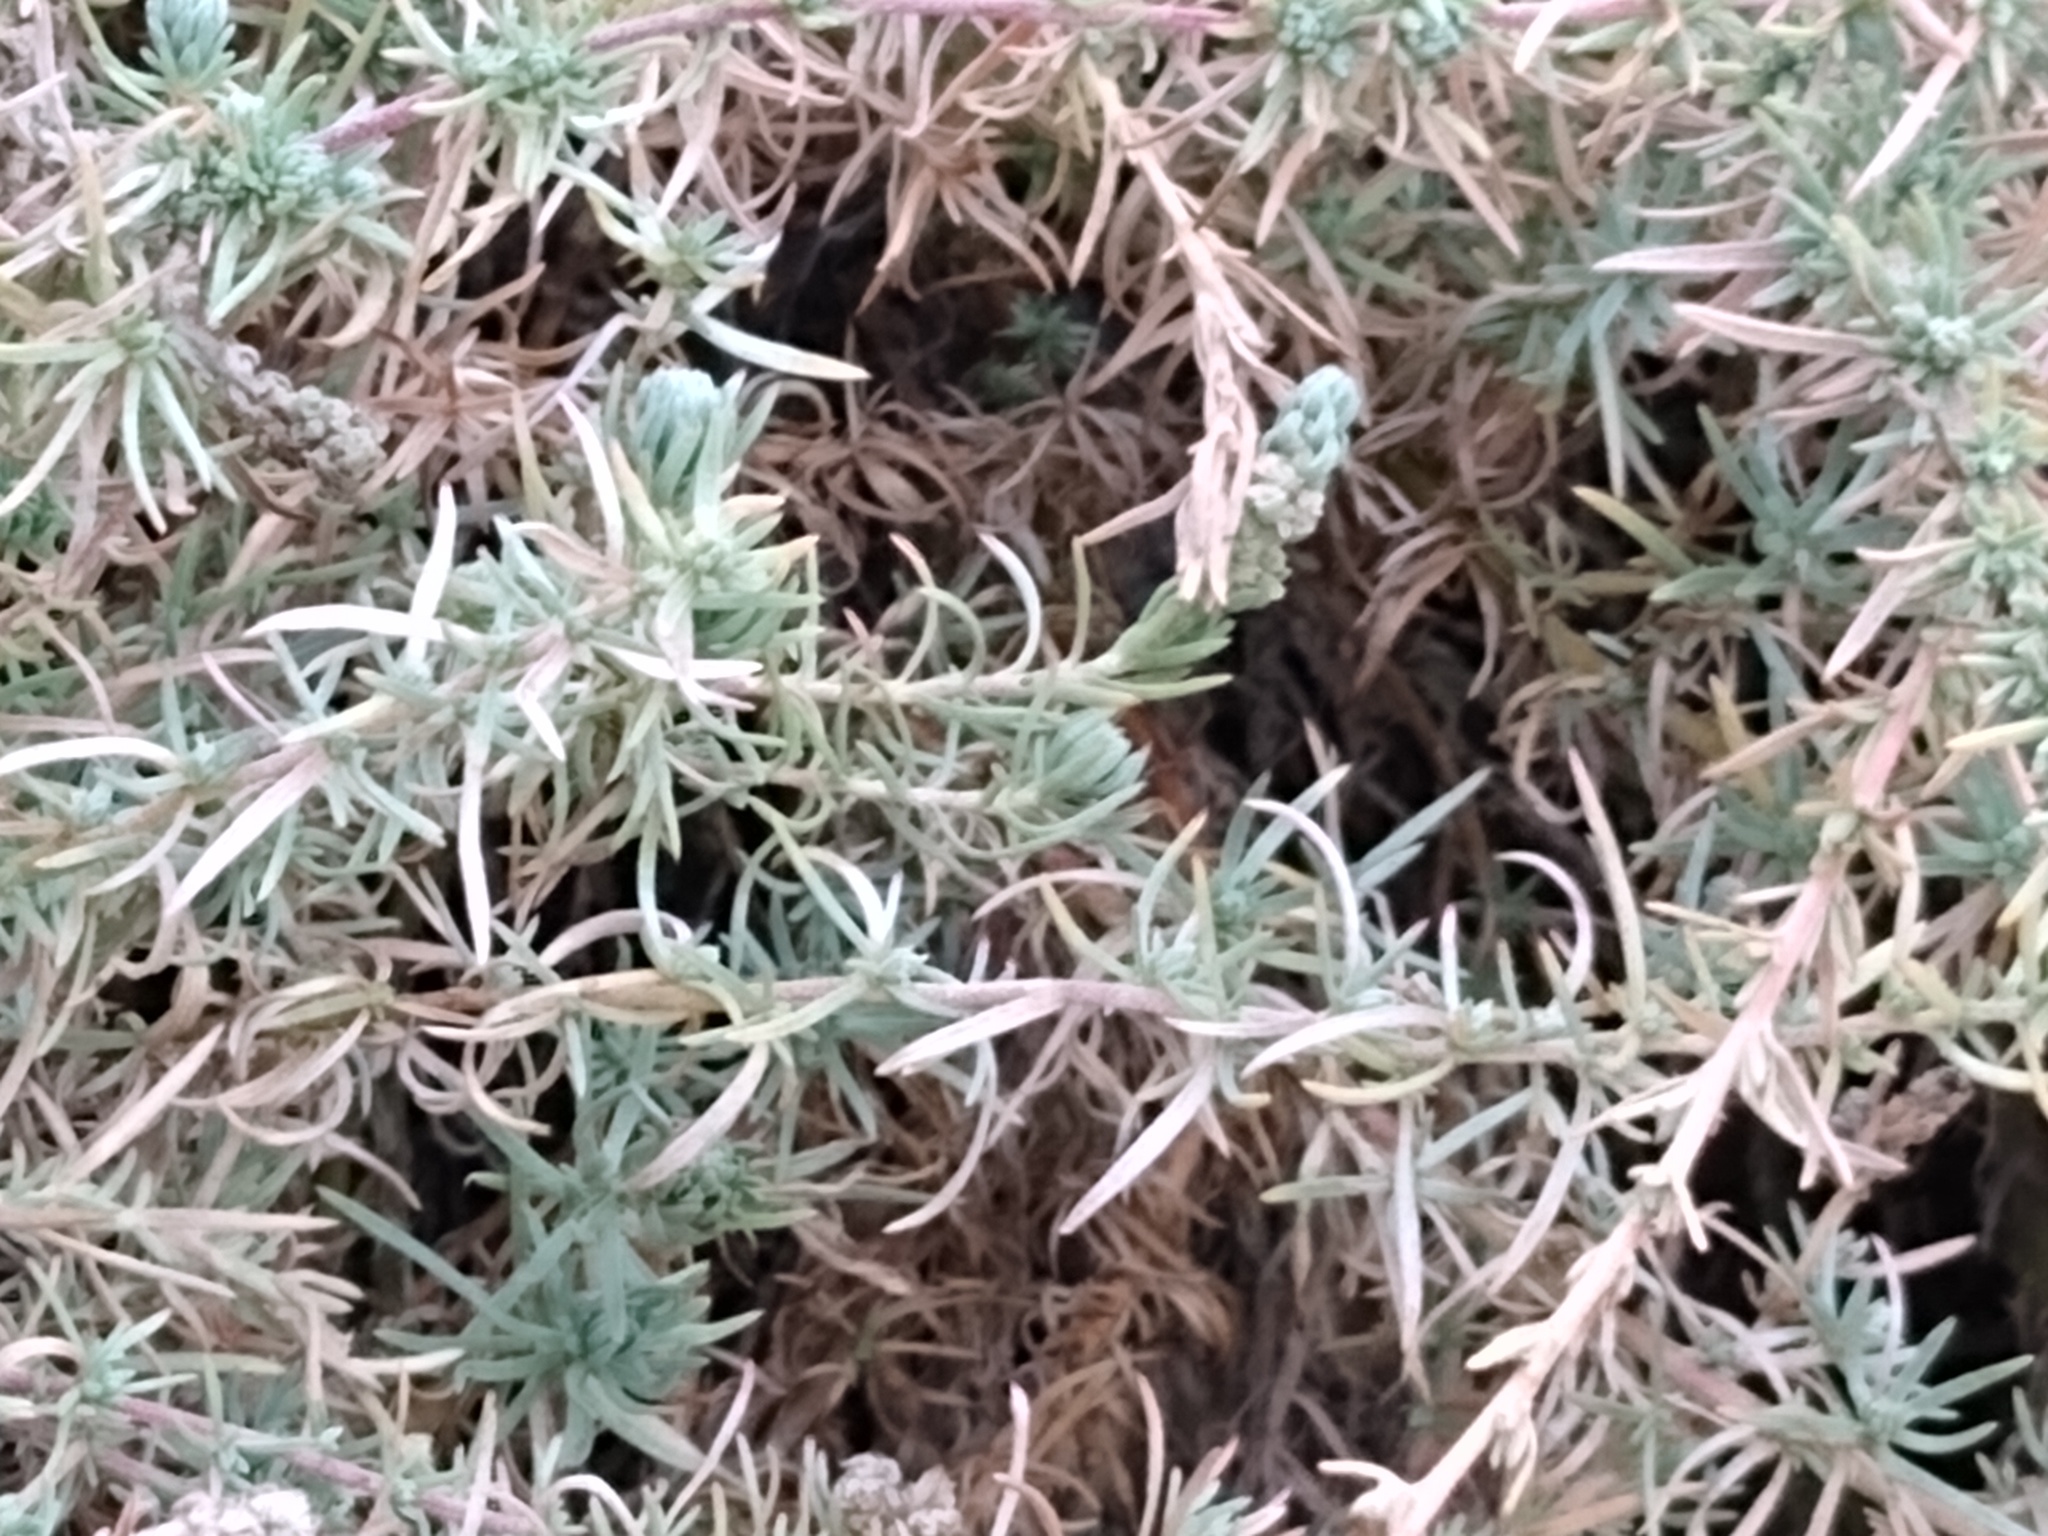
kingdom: Plantae
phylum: Tracheophyta
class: Magnoliopsida
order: Caryophyllales
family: Amaranthaceae
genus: Bassia
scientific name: Bassia prostrata
